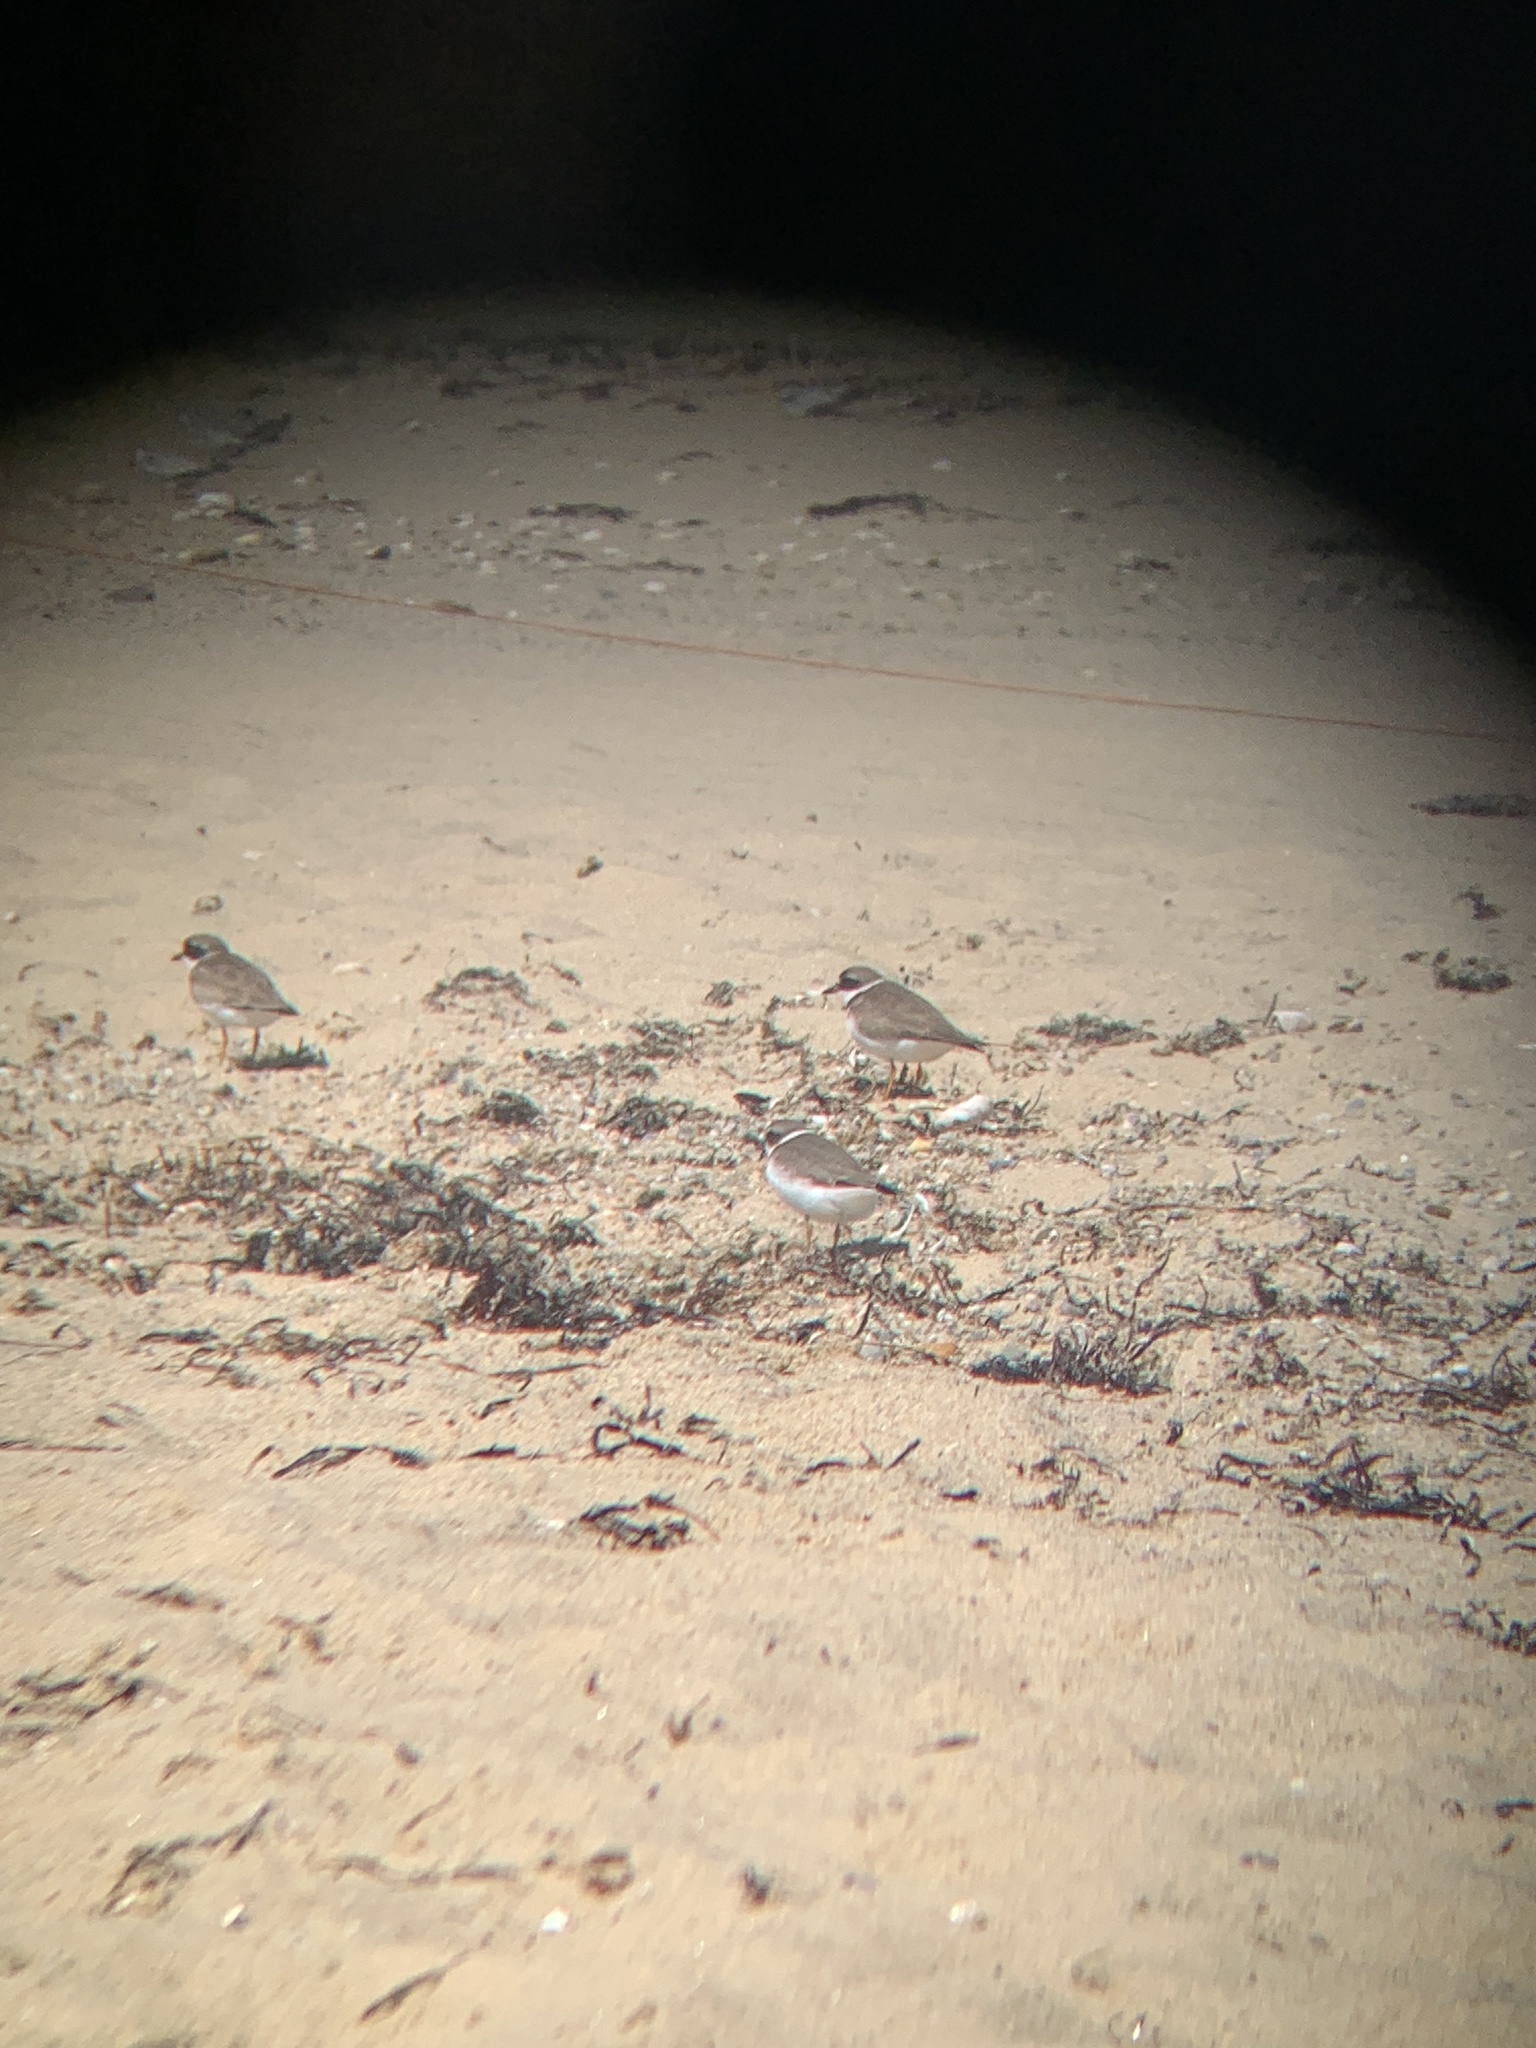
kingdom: Animalia
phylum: Chordata
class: Aves
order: Charadriiformes
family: Charadriidae
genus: Charadrius
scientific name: Charadrius semipalmatus
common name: Semipalmated plover
